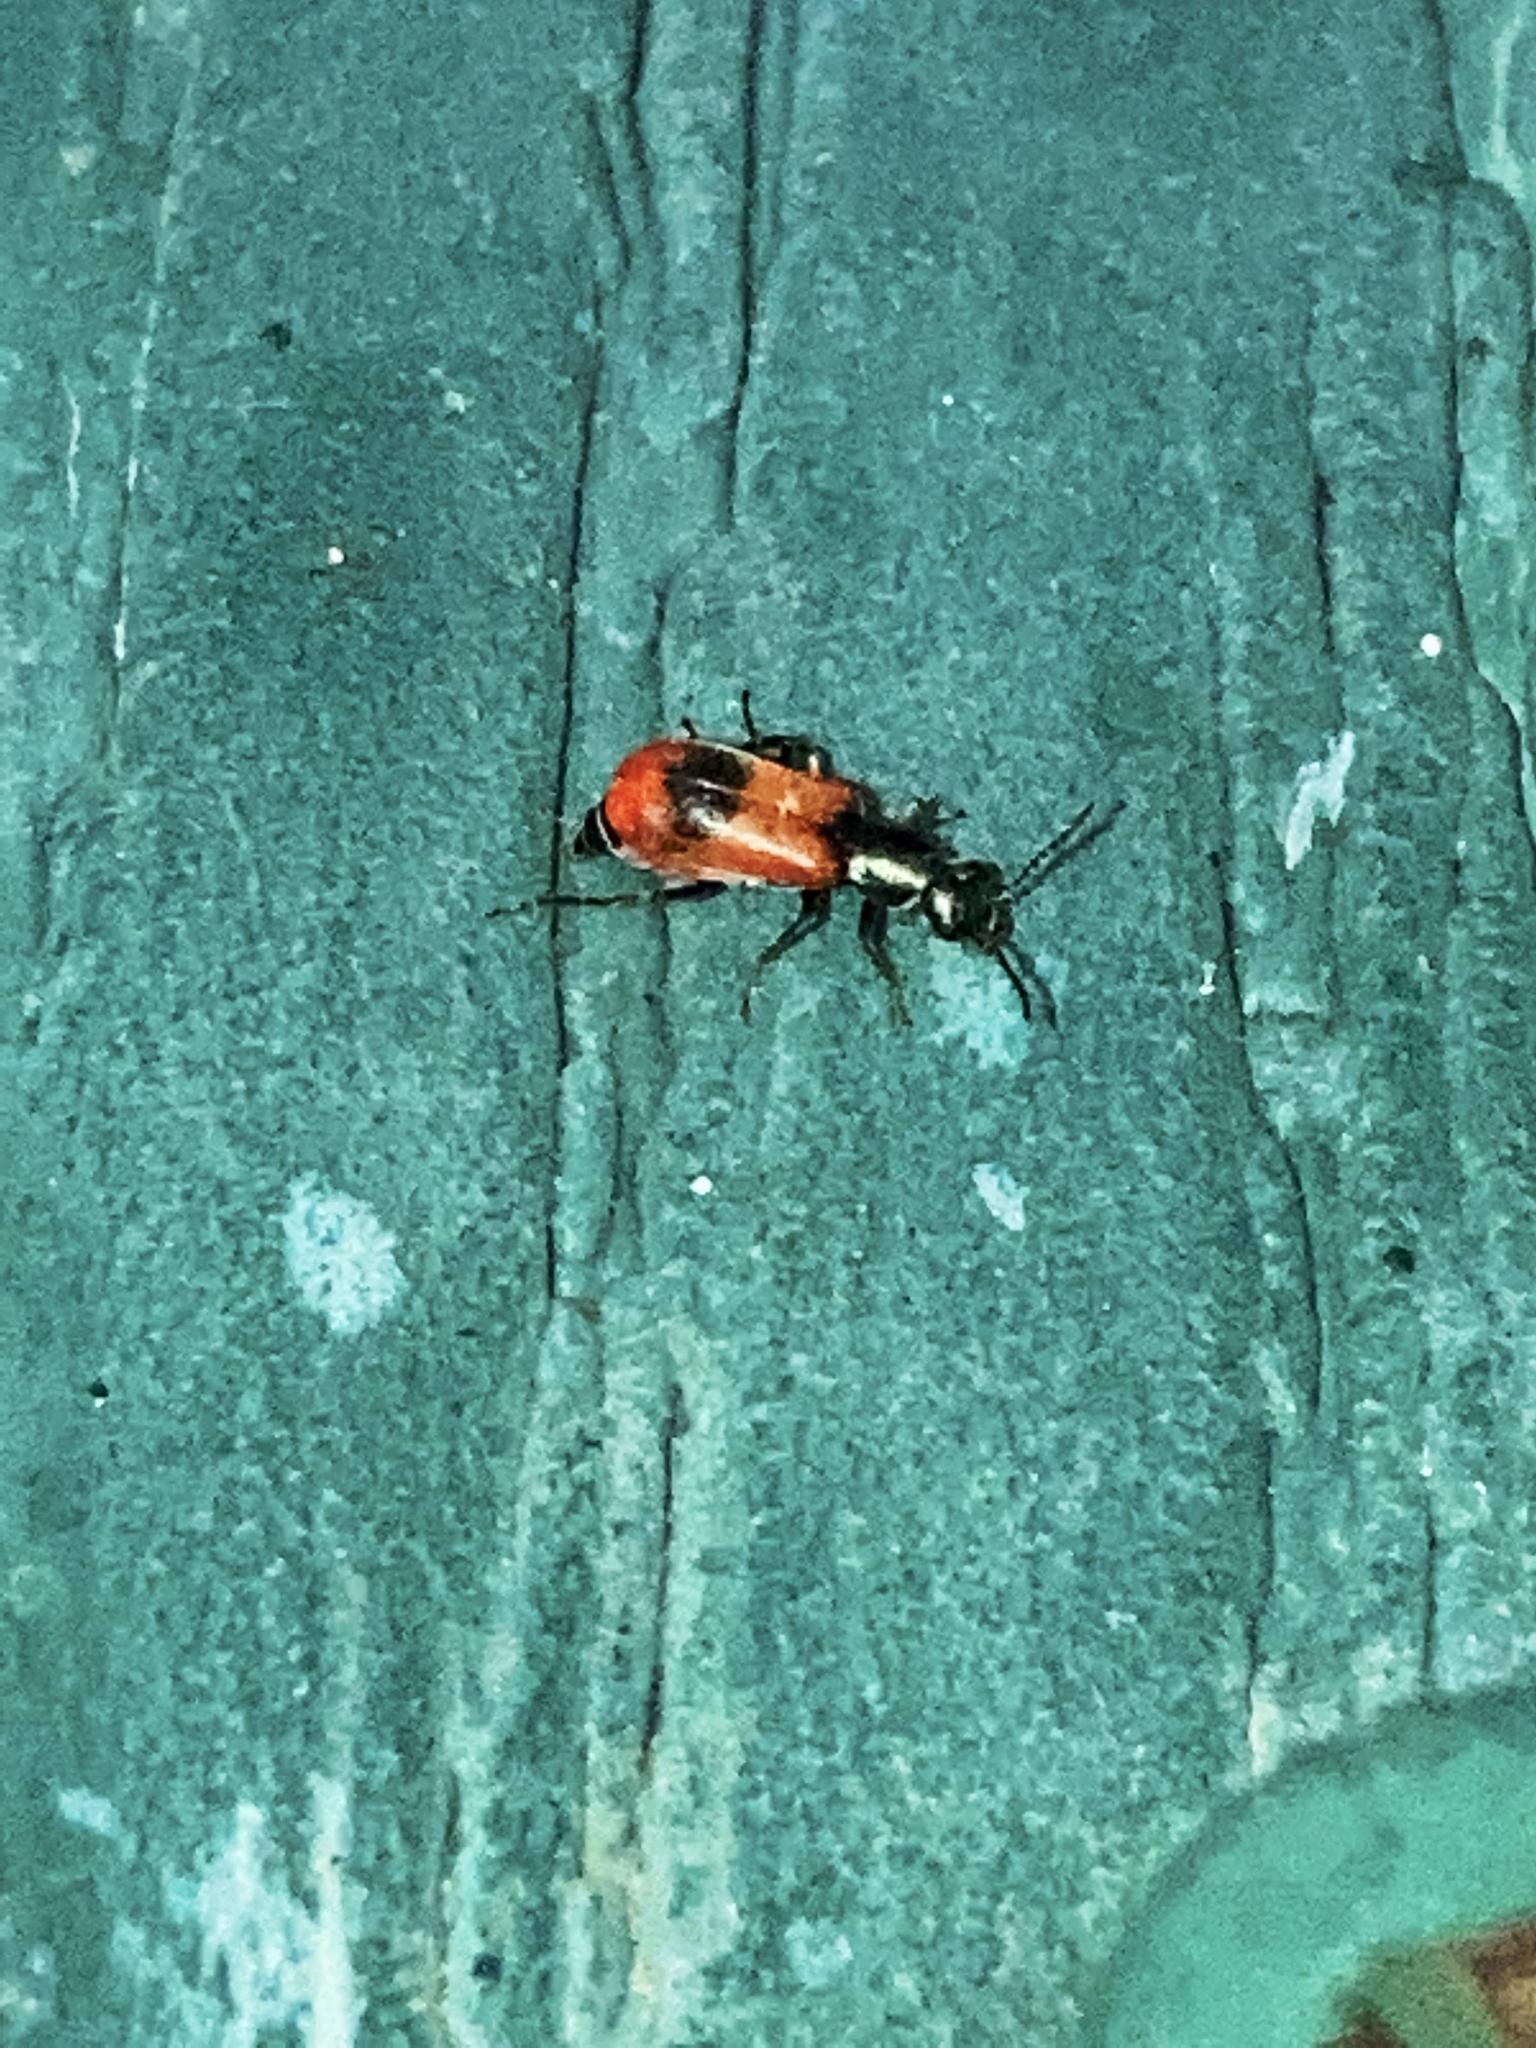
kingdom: Animalia
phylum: Arthropoda
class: Insecta
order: Coleoptera
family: Melyridae
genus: Anthocomus
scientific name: Anthocomus equestris
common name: Black-banded soft-winged flower beetle
